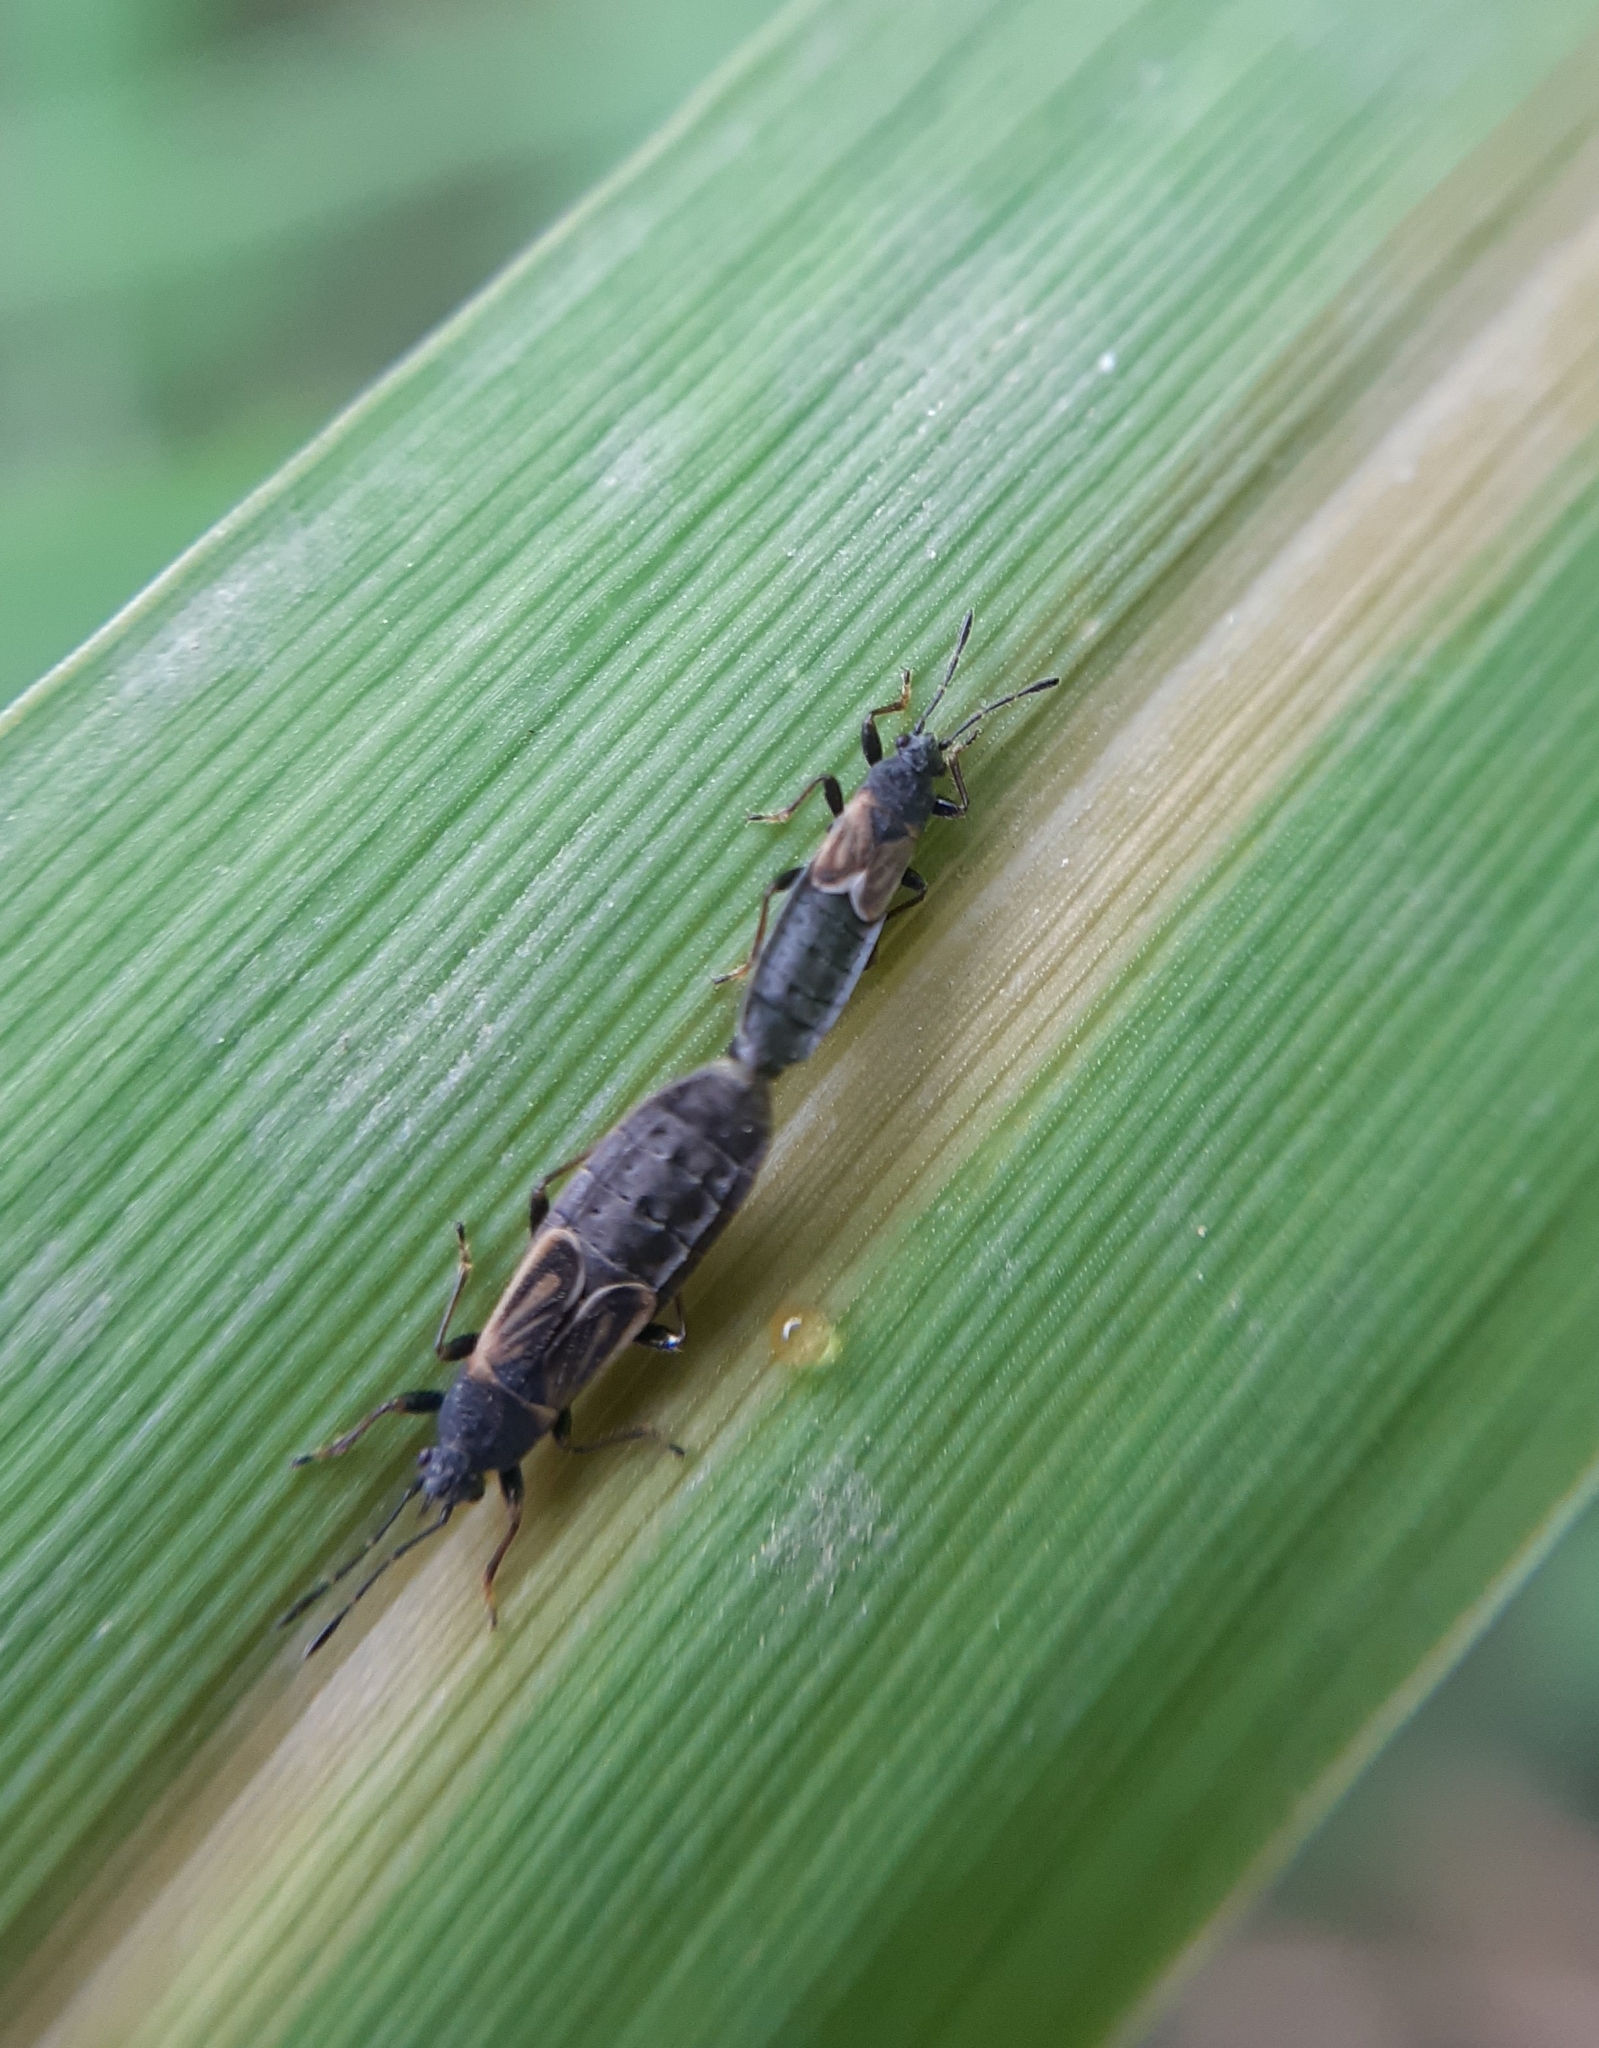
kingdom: Animalia
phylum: Arthropoda
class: Insecta
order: Hemiptera
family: Blissidae
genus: Ischnodemus
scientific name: Ischnodemus sabuleti
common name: European cinchbug
